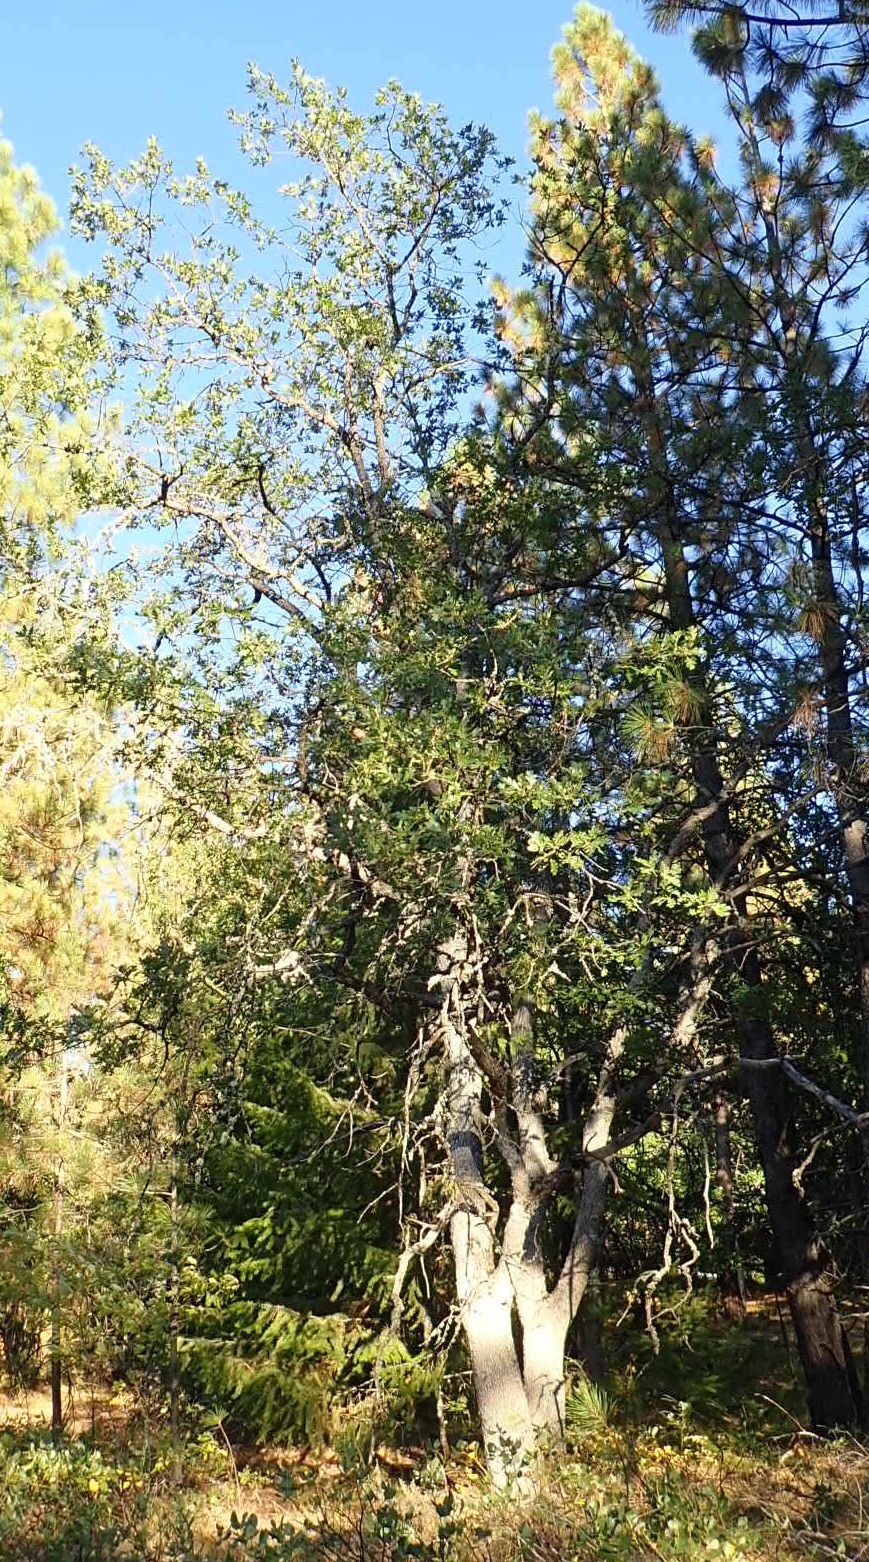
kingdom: Plantae
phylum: Tracheophyta
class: Magnoliopsida
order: Fagales
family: Fagaceae
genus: Quercus
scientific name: Quercus garryana
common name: Garry oak
